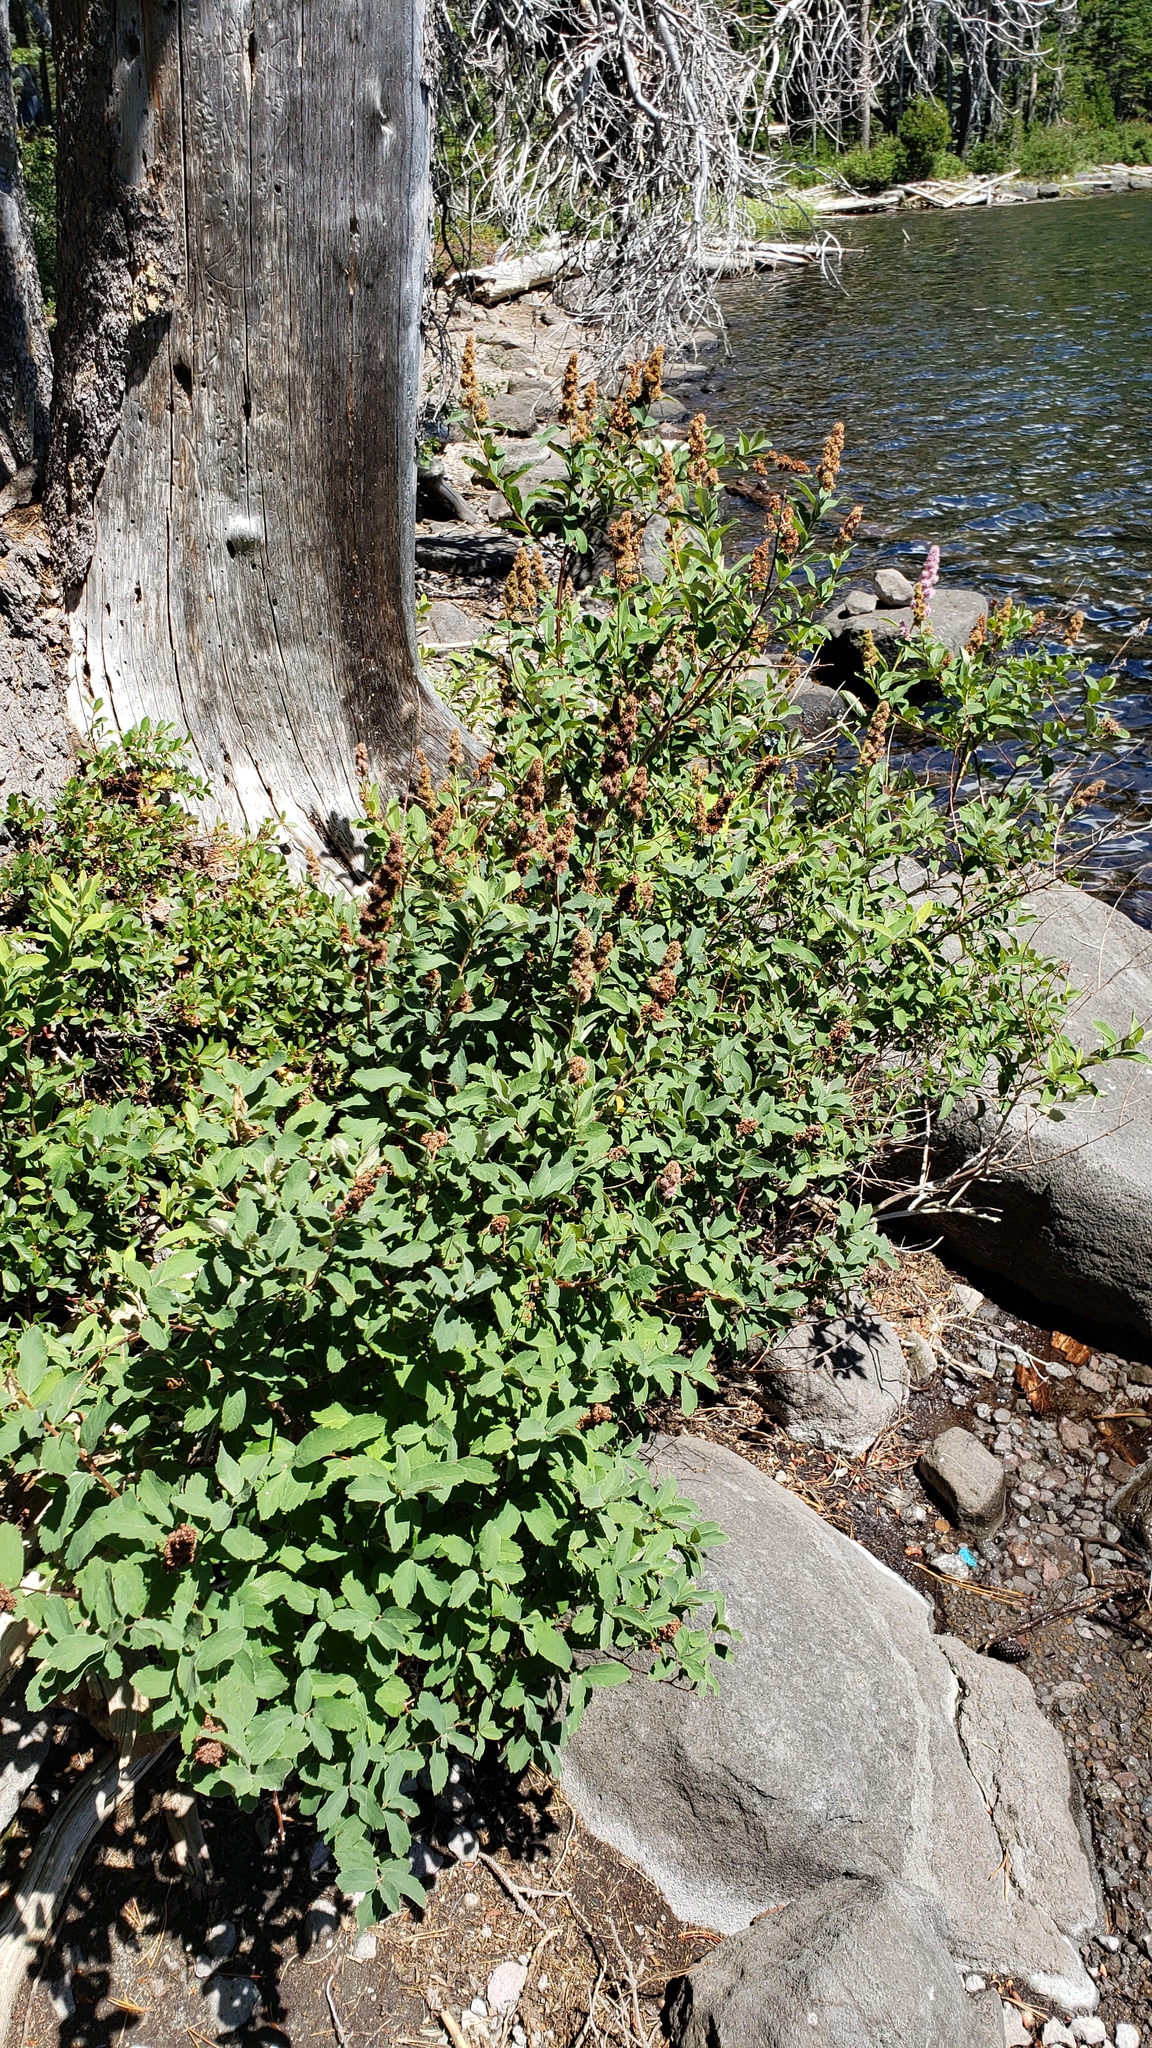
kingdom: Plantae
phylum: Tracheophyta
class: Magnoliopsida
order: Rosales
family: Rosaceae
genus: Spiraea
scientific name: Spiraea douglasii
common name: Steeplebush
